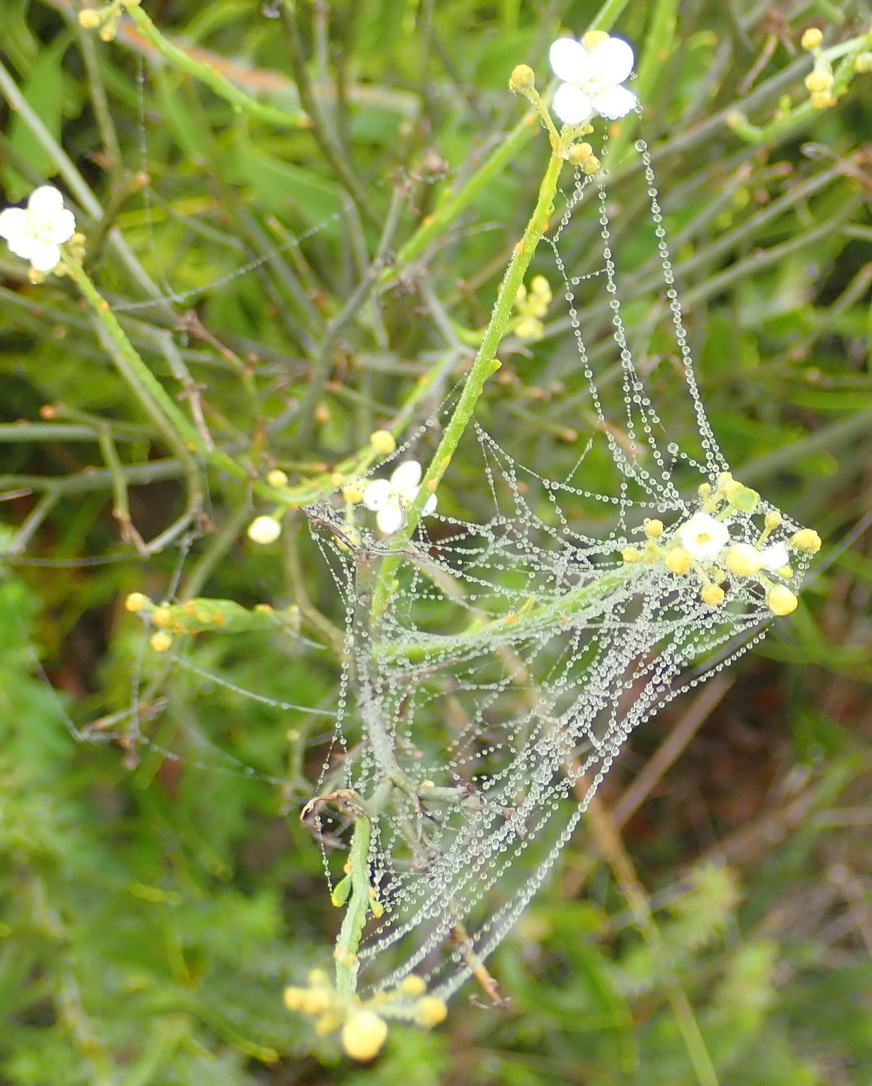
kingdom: Plantae
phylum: Tracheophyta
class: Magnoliopsida
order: Solanales
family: Montiniaceae
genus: Montinia
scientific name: Montinia caryophyllacea
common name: Wild clove-bush
